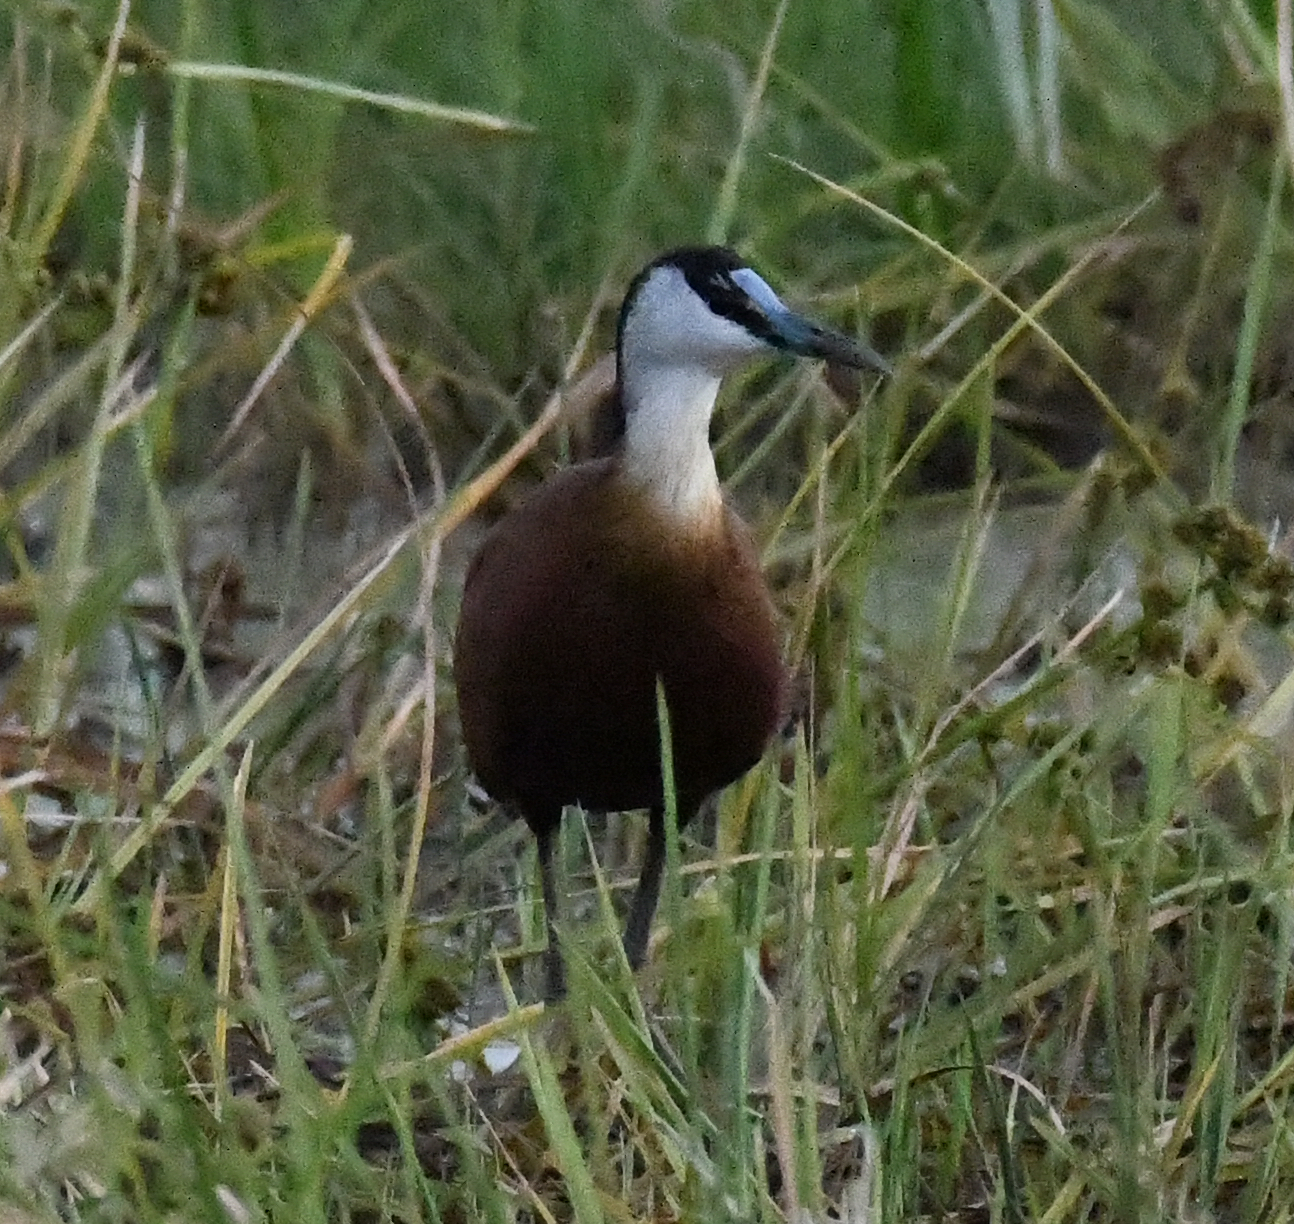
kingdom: Animalia
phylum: Chordata
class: Aves
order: Charadriiformes
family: Jacanidae
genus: Actophilornis
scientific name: Actophilornis africanus
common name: African jacana
